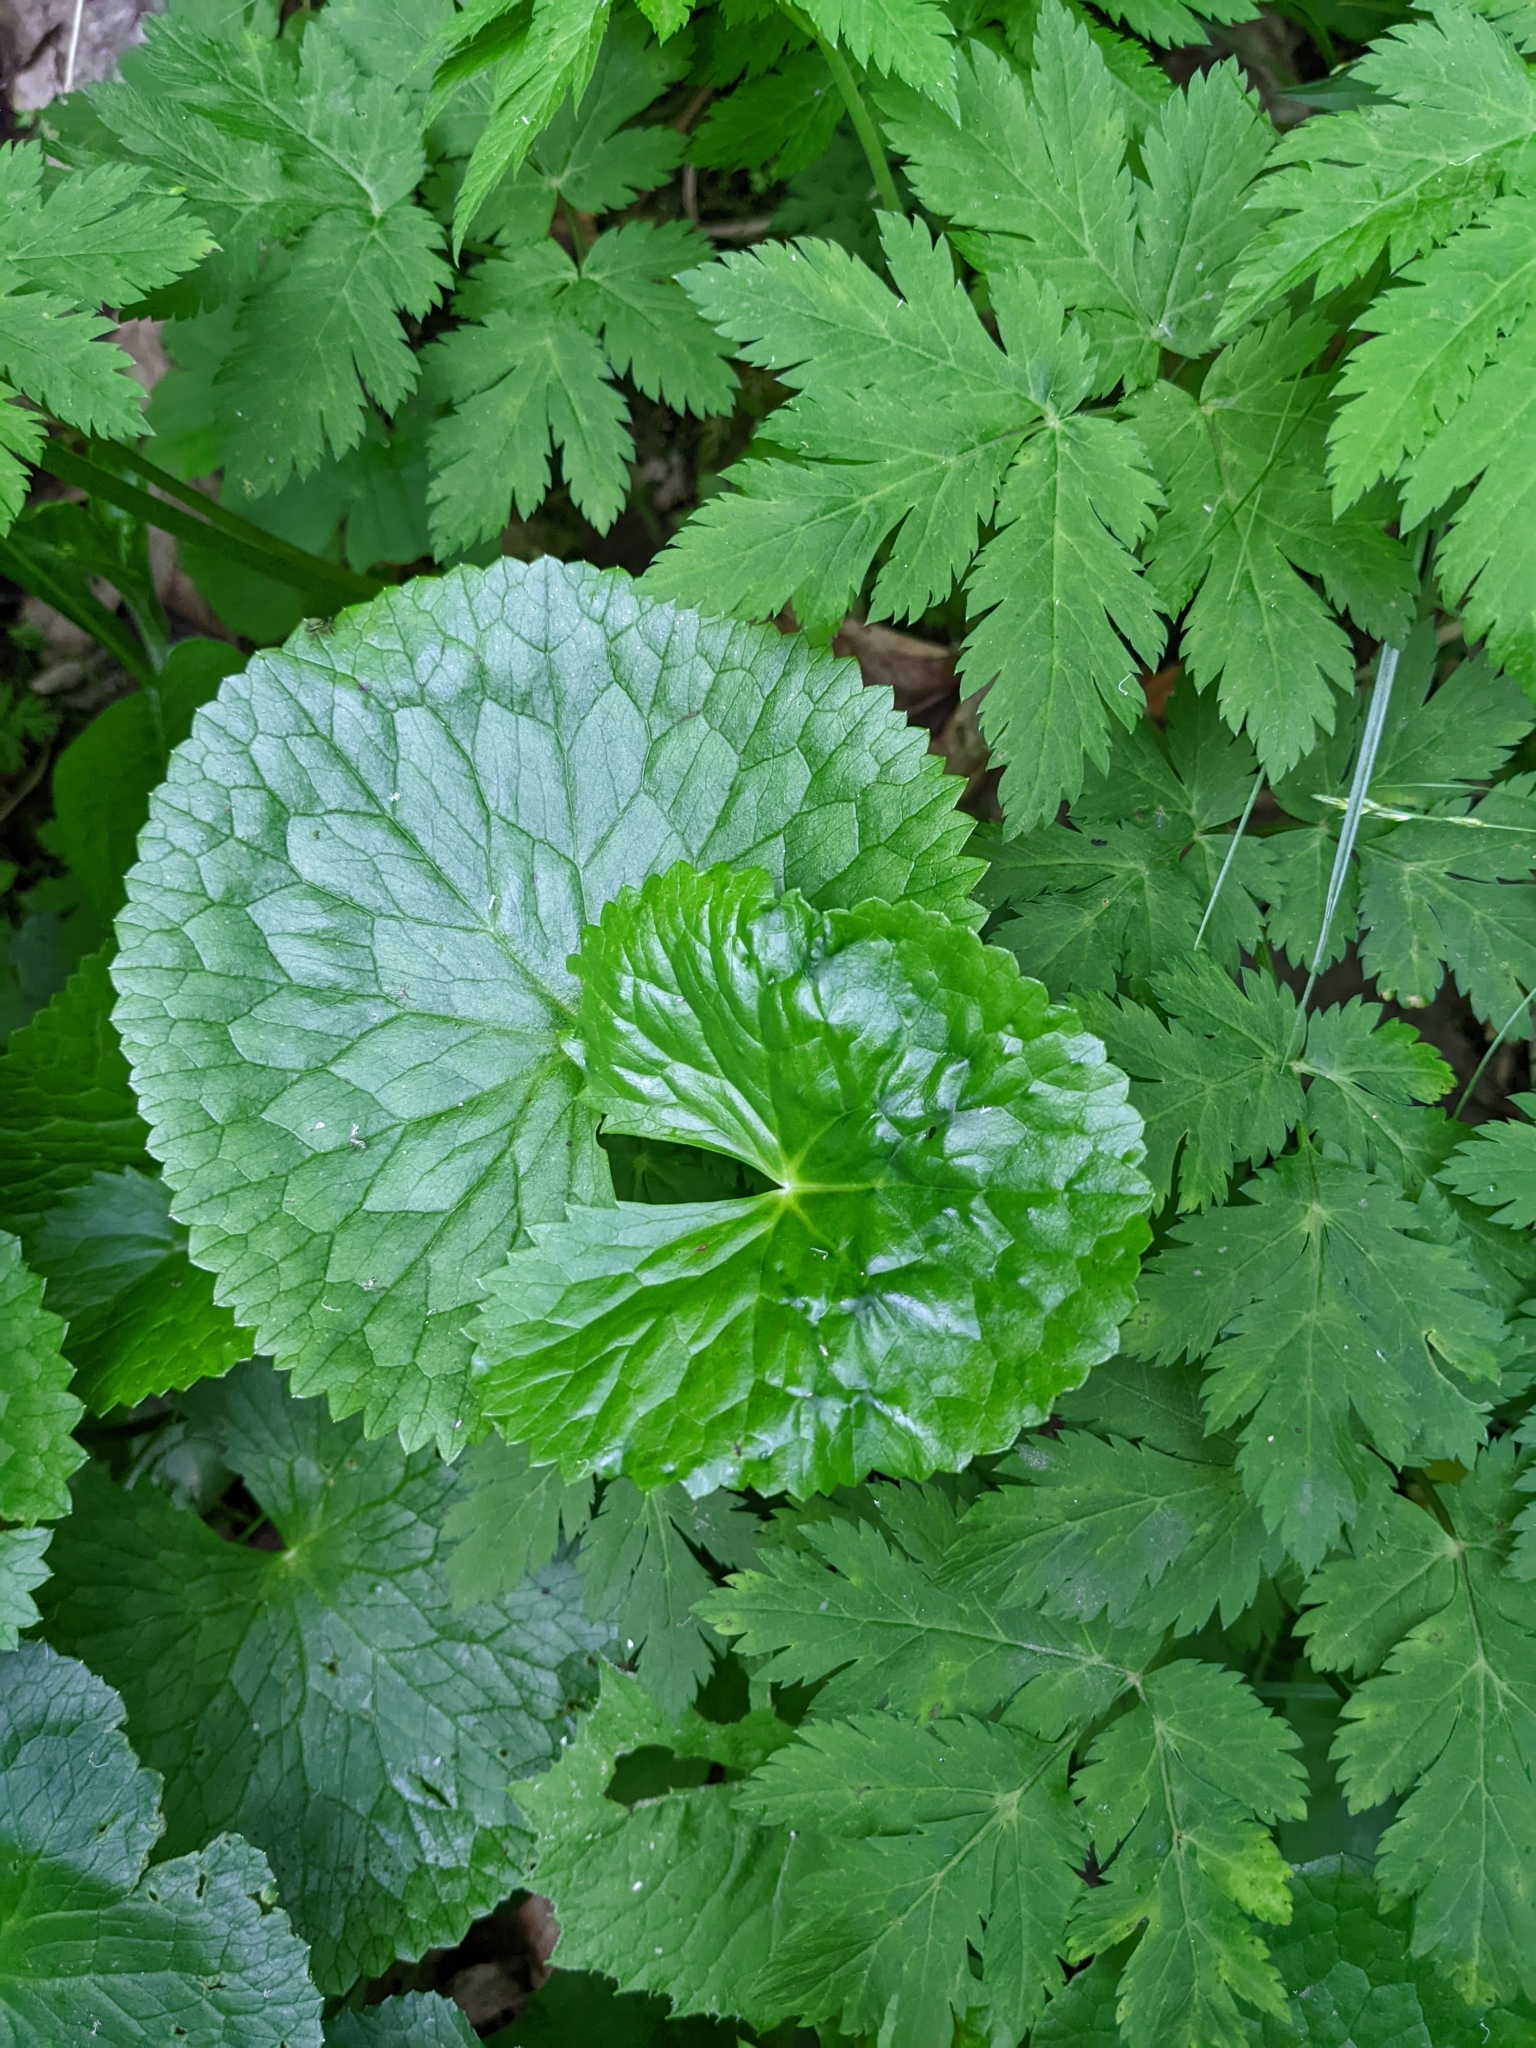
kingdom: Plantae
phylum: Tracheophyta
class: Magnoliopsida
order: Ranunculales
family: Ranunculaceae
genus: Caltha
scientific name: Caltha palustris
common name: Marsh marigold
